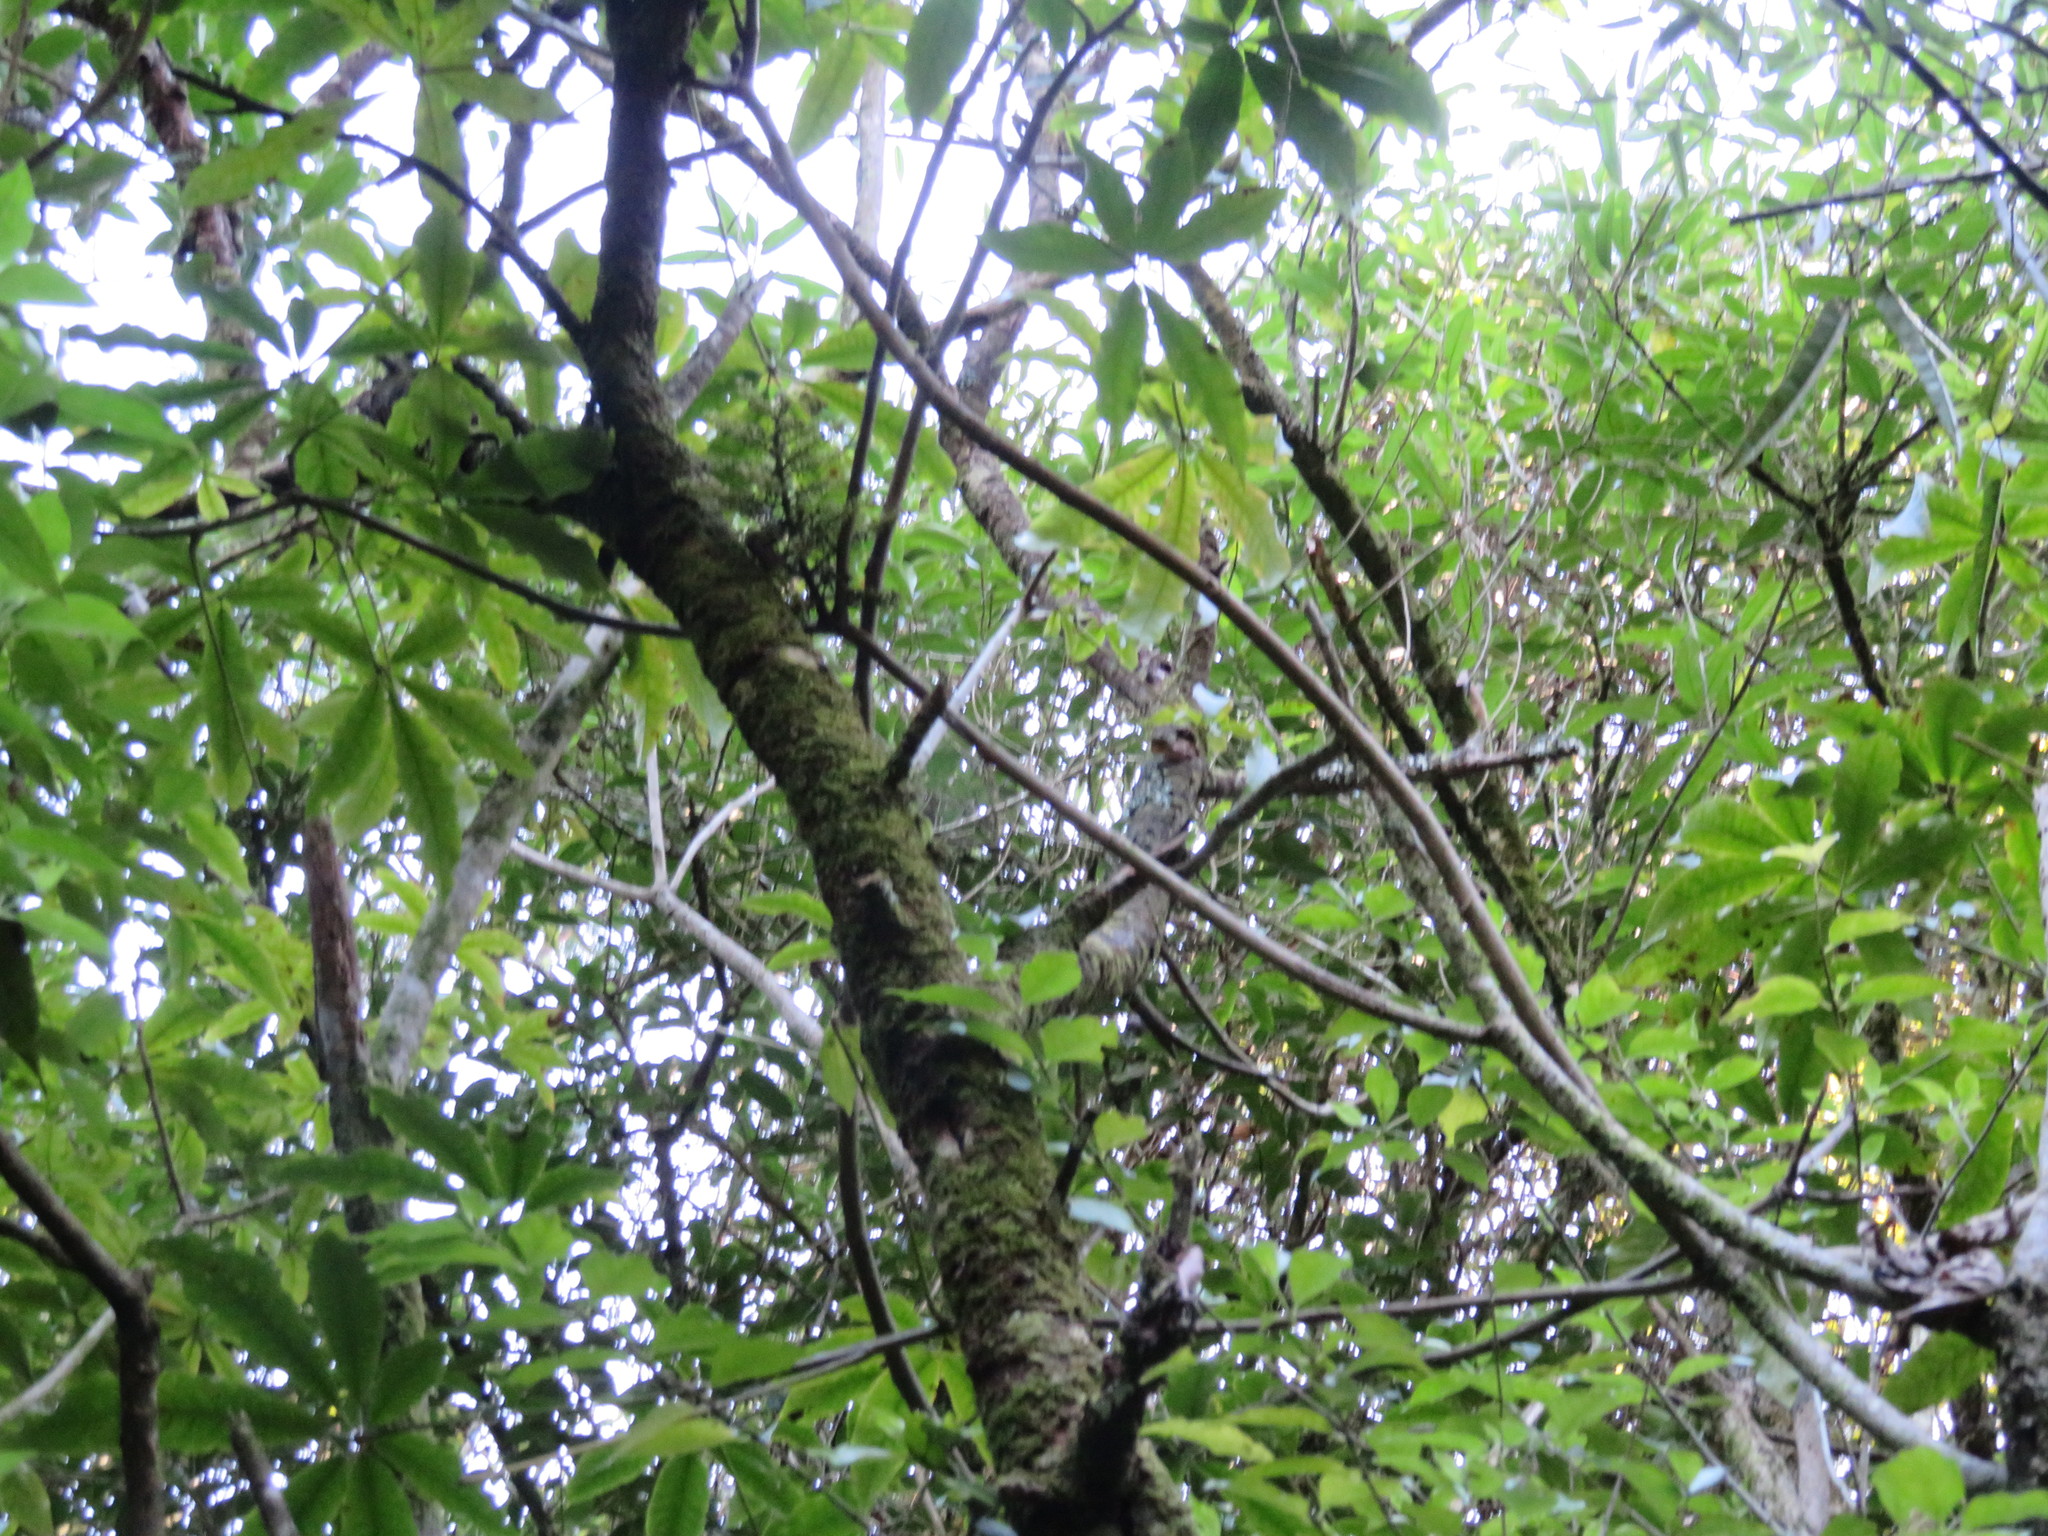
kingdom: Plantae
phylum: Tracheophyta
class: Magnoliopsida
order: Apiales
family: Araliaceae
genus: Schefflera
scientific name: Schefflera digitata
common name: Pate
